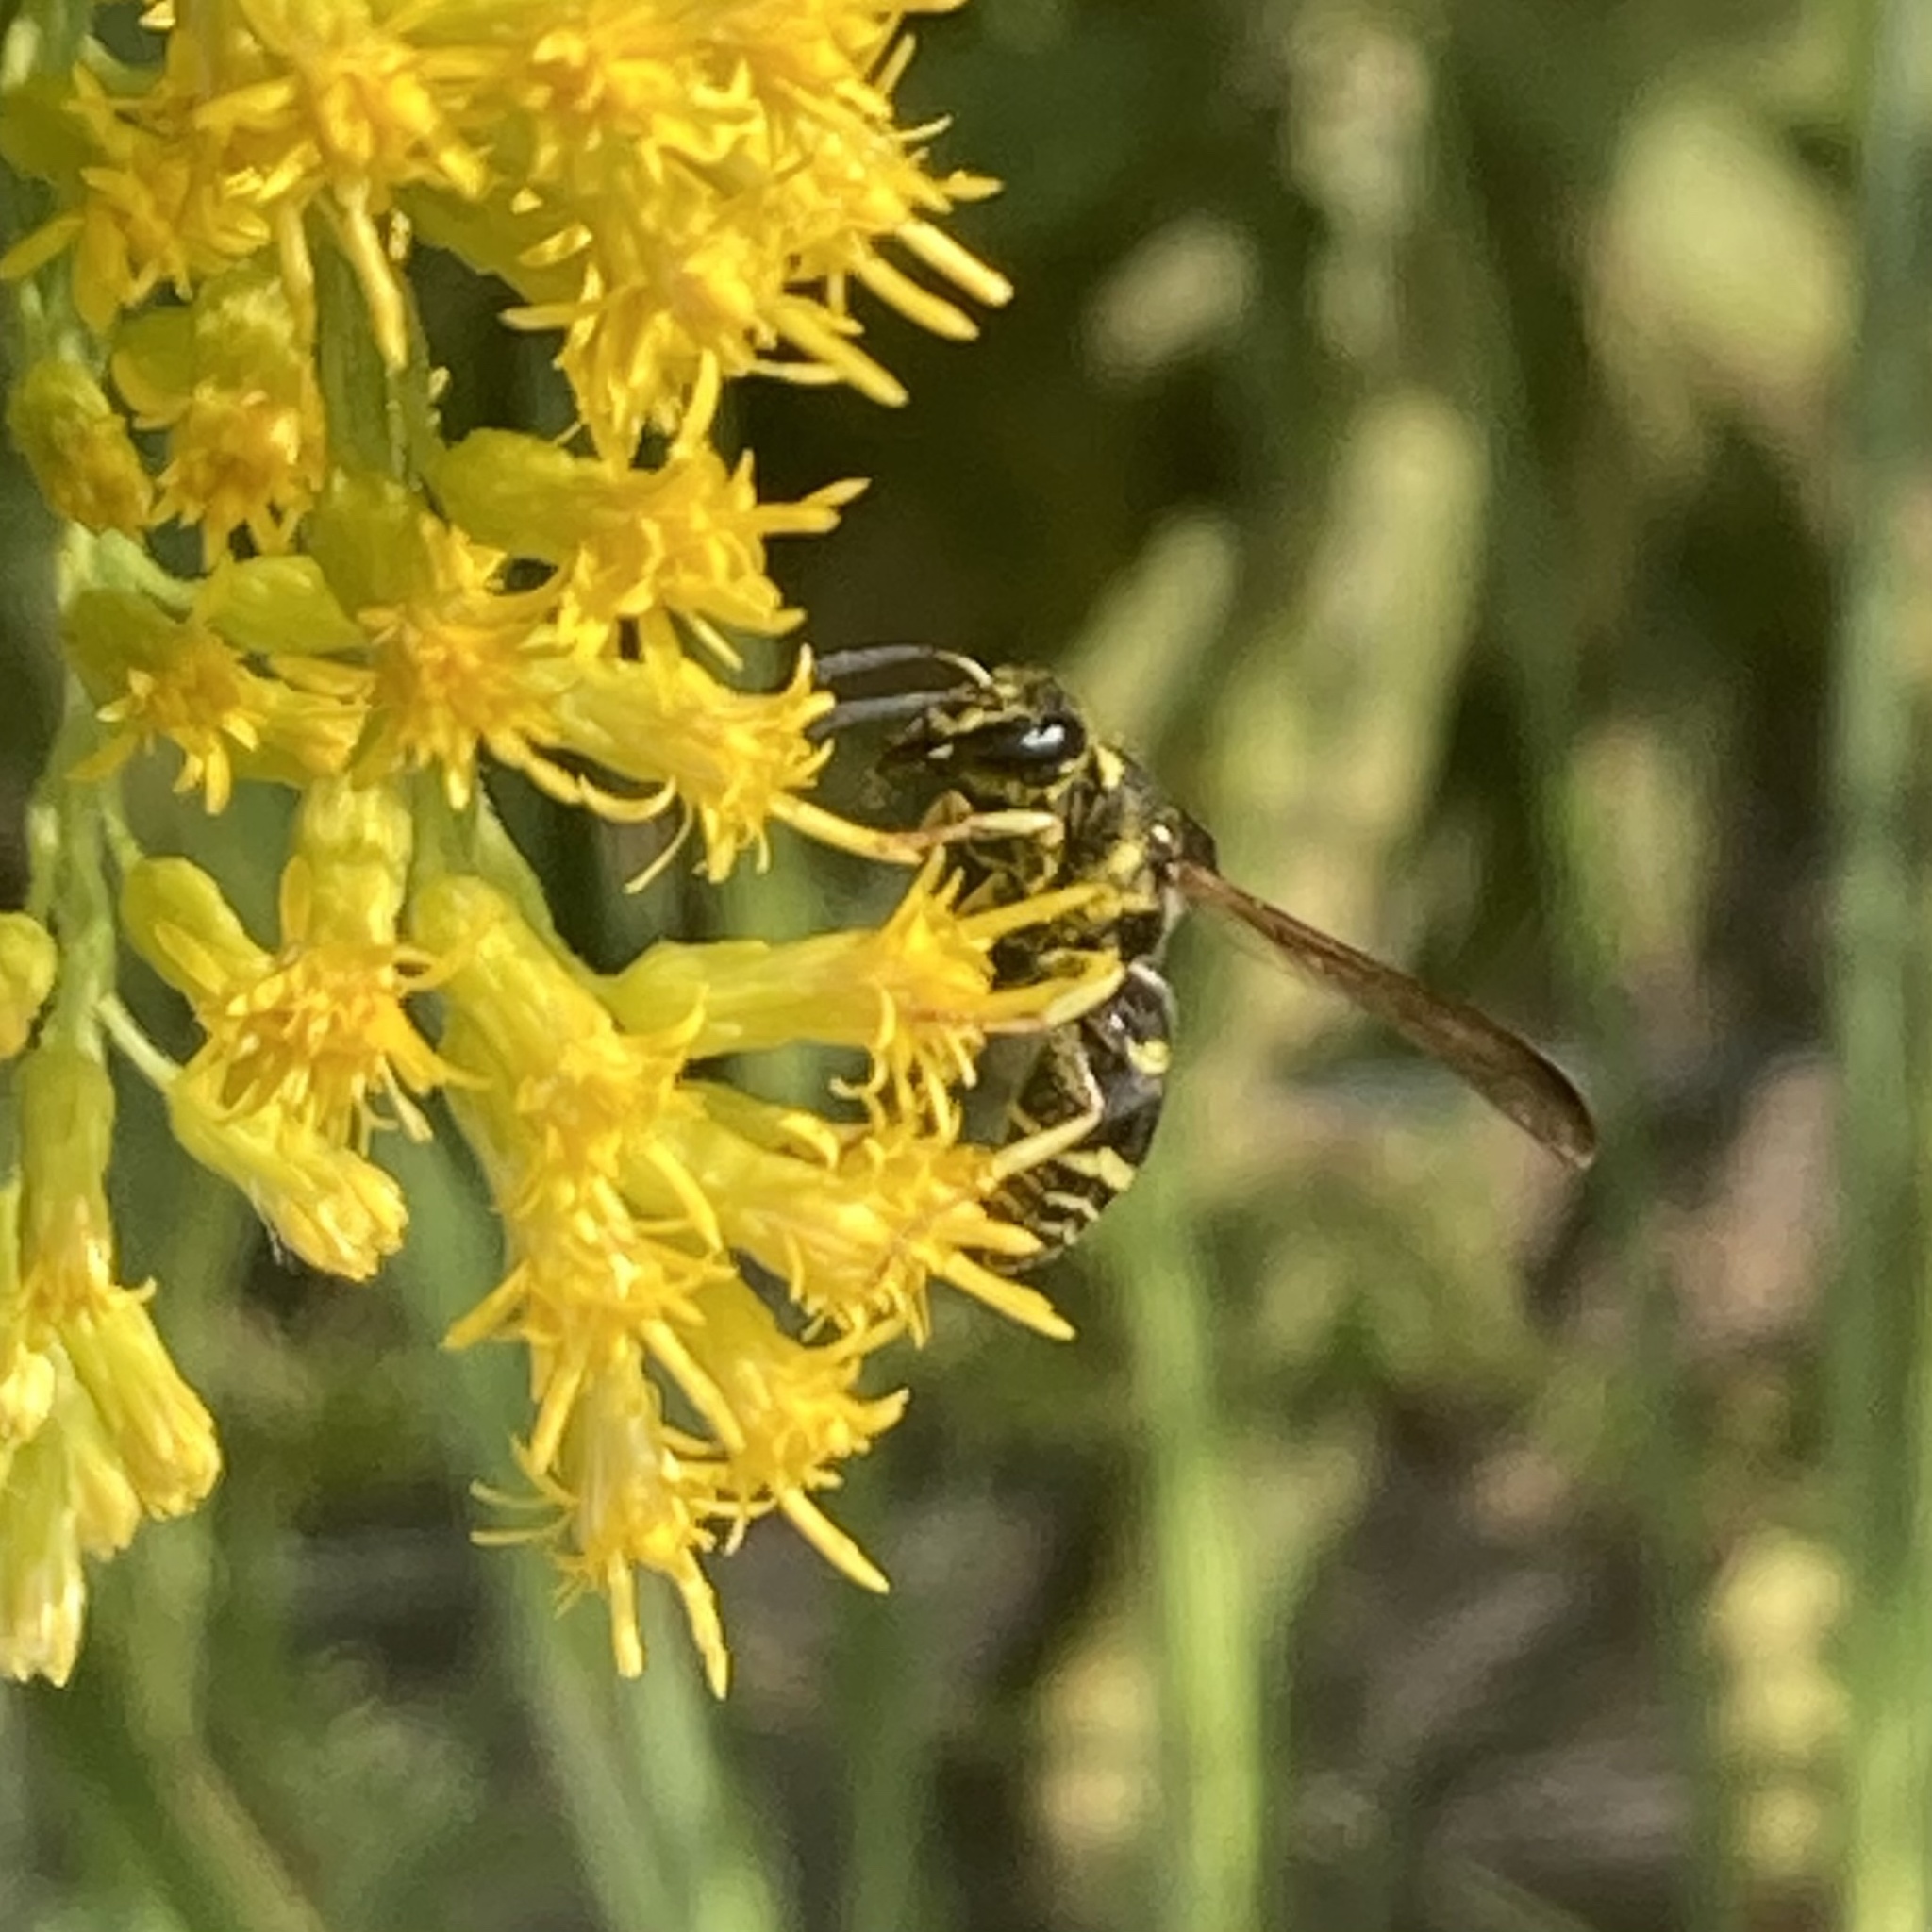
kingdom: Animalia
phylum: Arthropoda
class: Insecta
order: Hymenoptera
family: Vespidae
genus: Ancistrocerus
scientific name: Ancistrocerus adiabatus
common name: Bramble mason wasp
